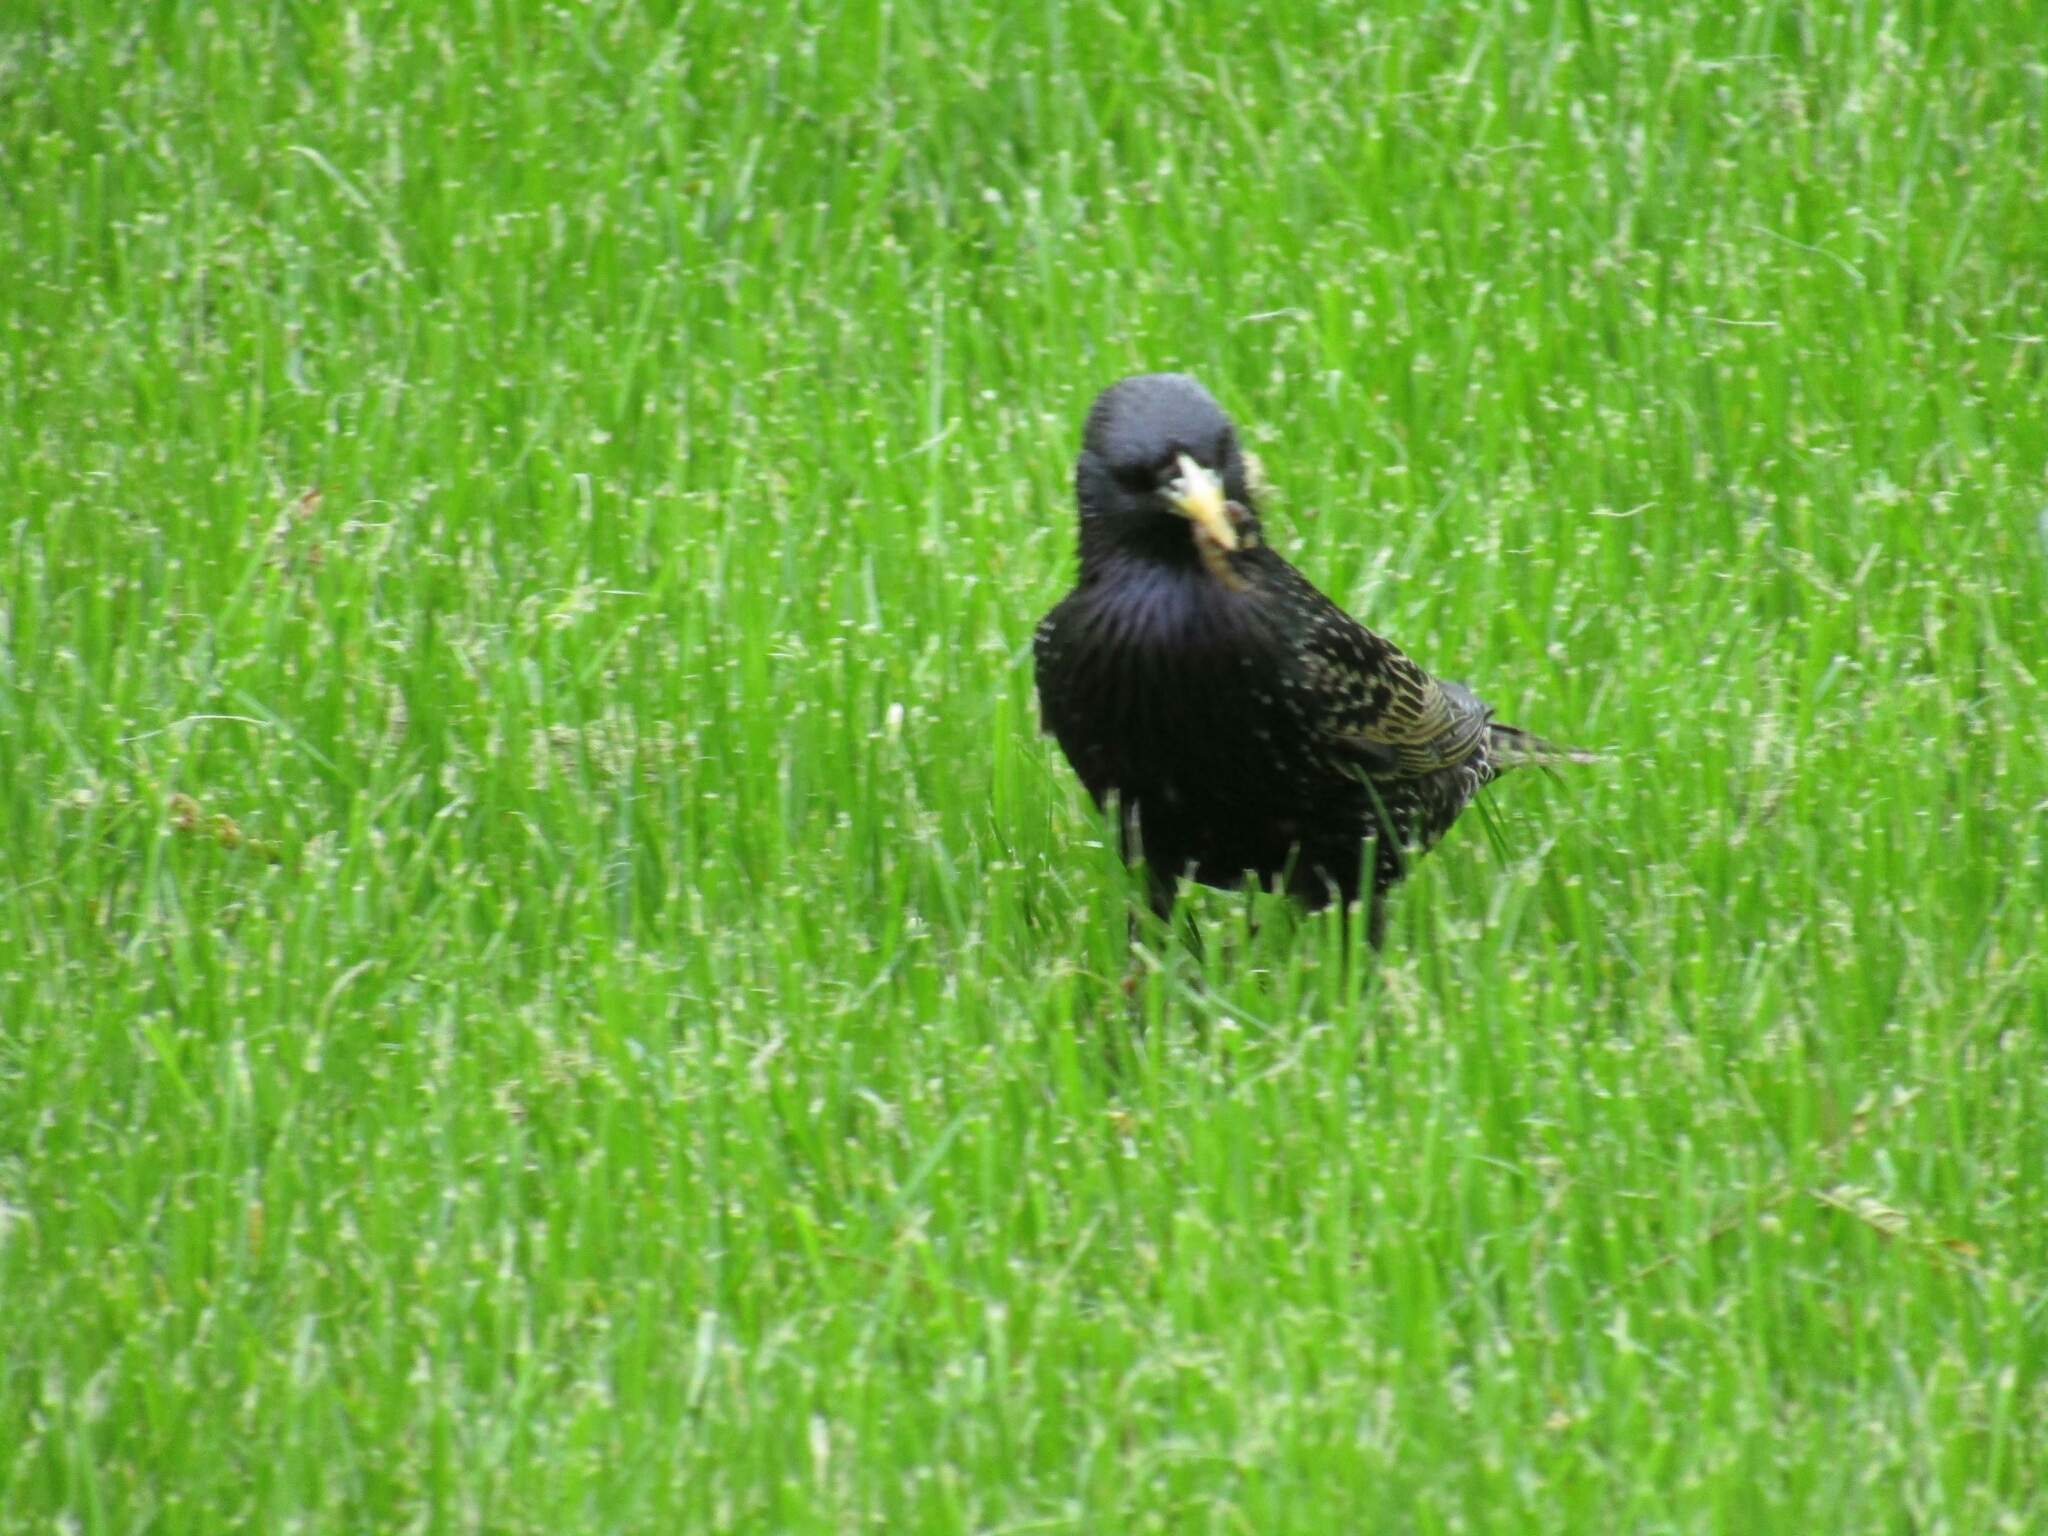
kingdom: Animalia
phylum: Chordata
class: Aves
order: Passeriformes
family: Sturnidae
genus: Sturnus
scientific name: Sturnus vulgaris
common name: Common starling
